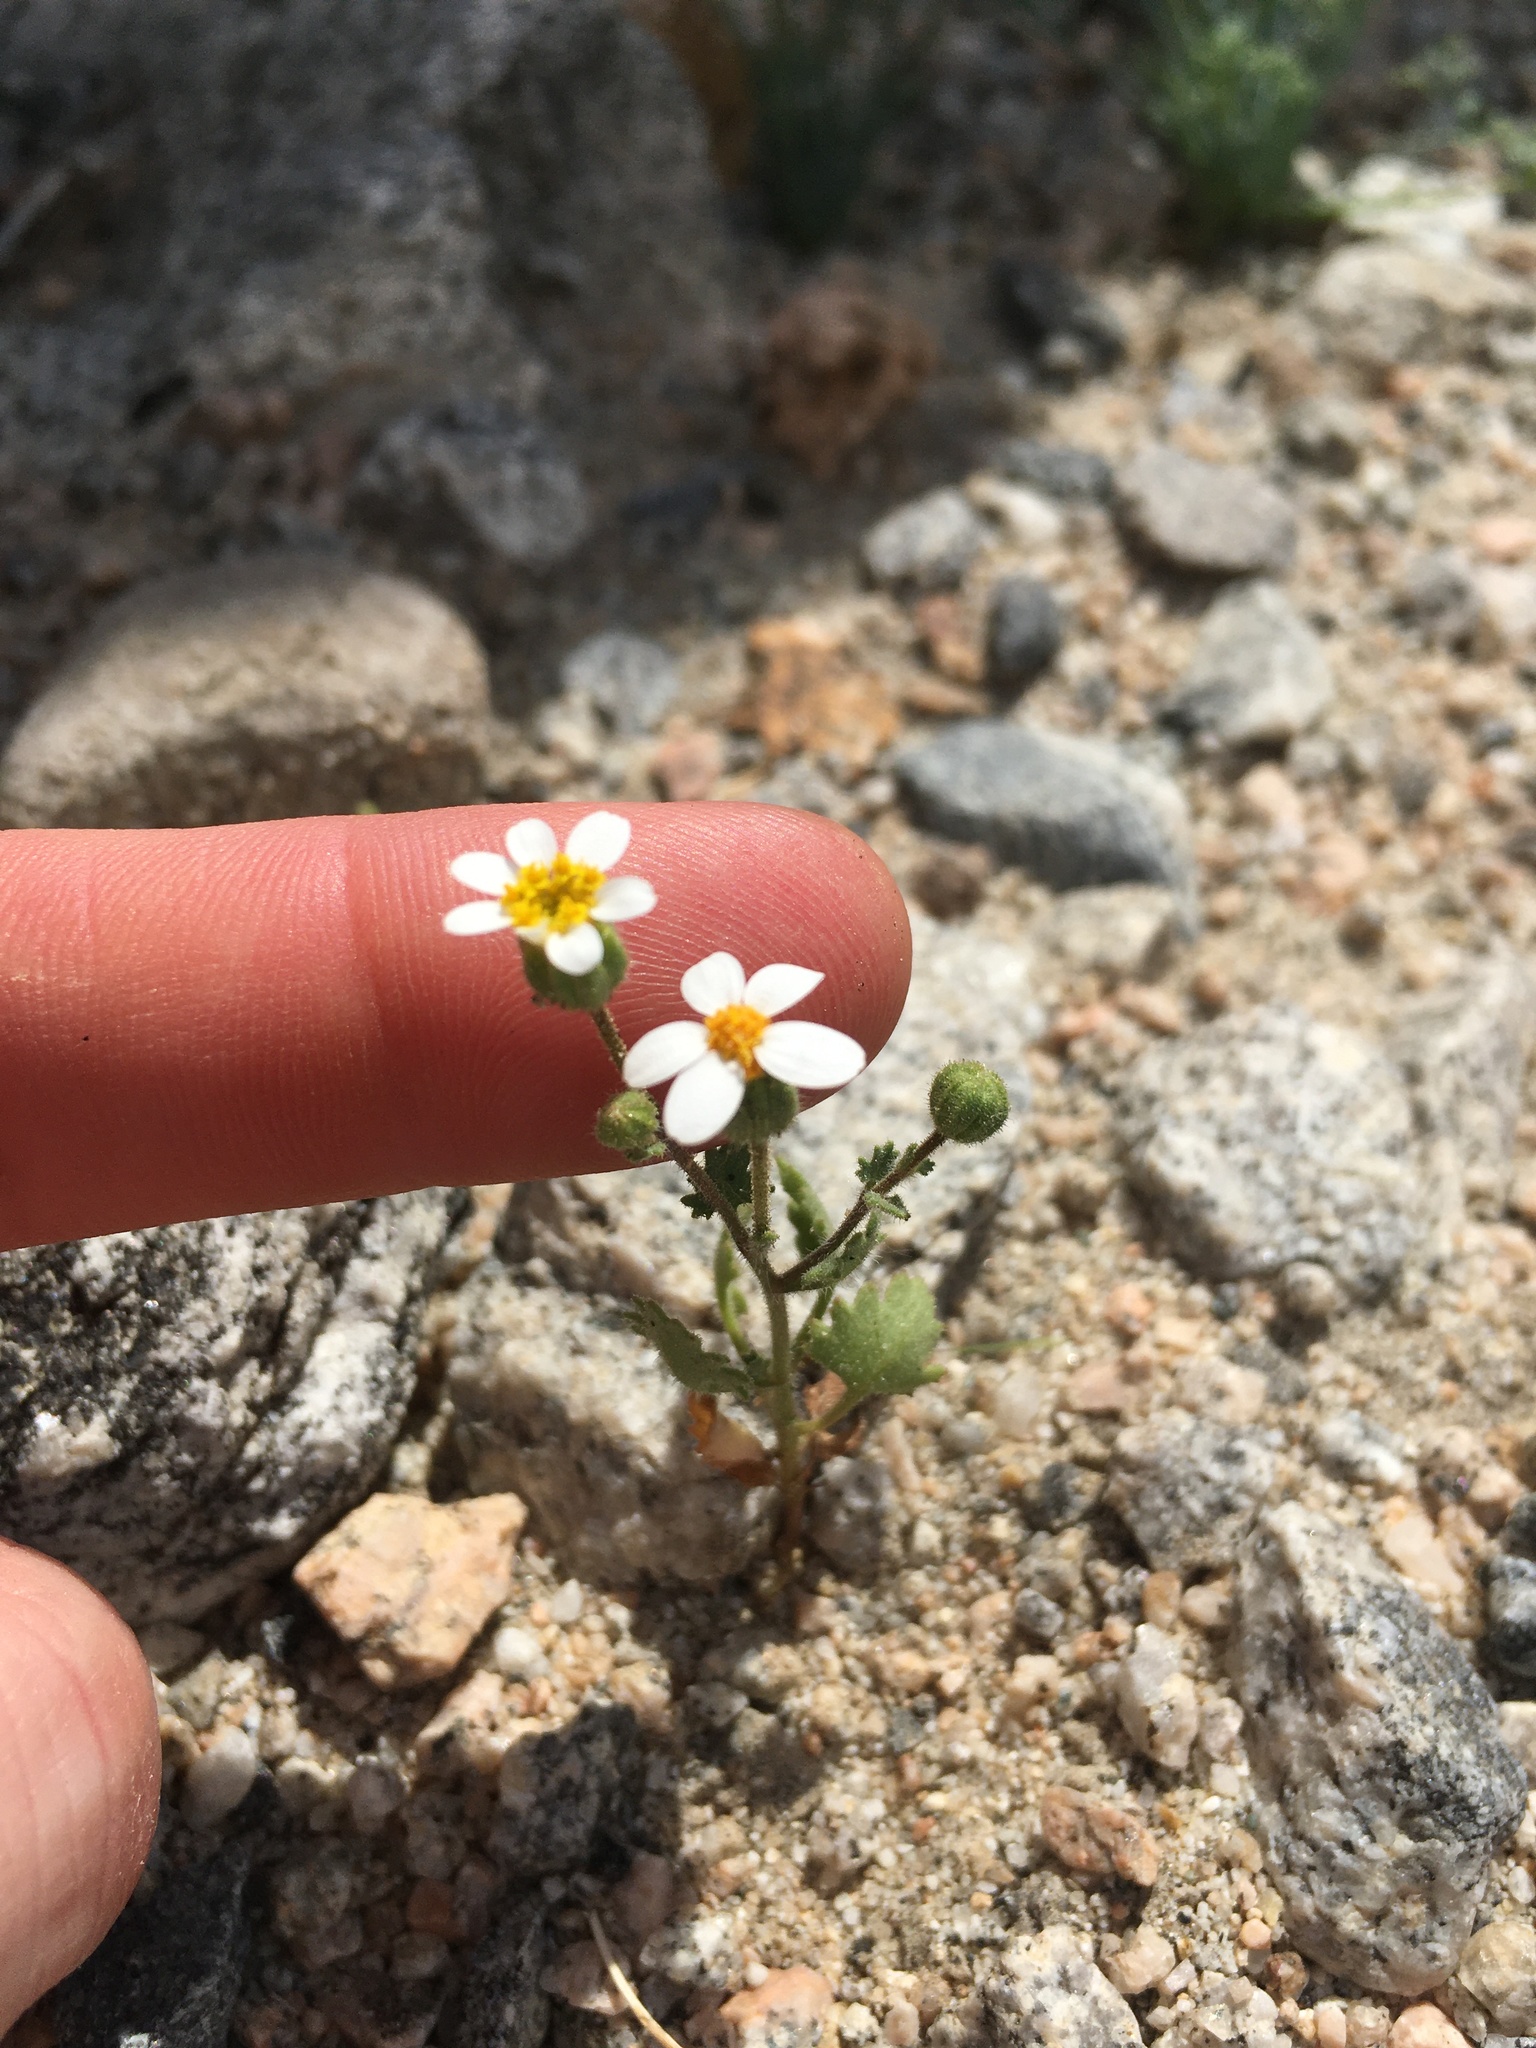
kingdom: Plantae
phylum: Tracheophyta
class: Magnoliopsida
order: Asterales
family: Asteraceae
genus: Laphamia
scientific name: Laphamia emoryi
